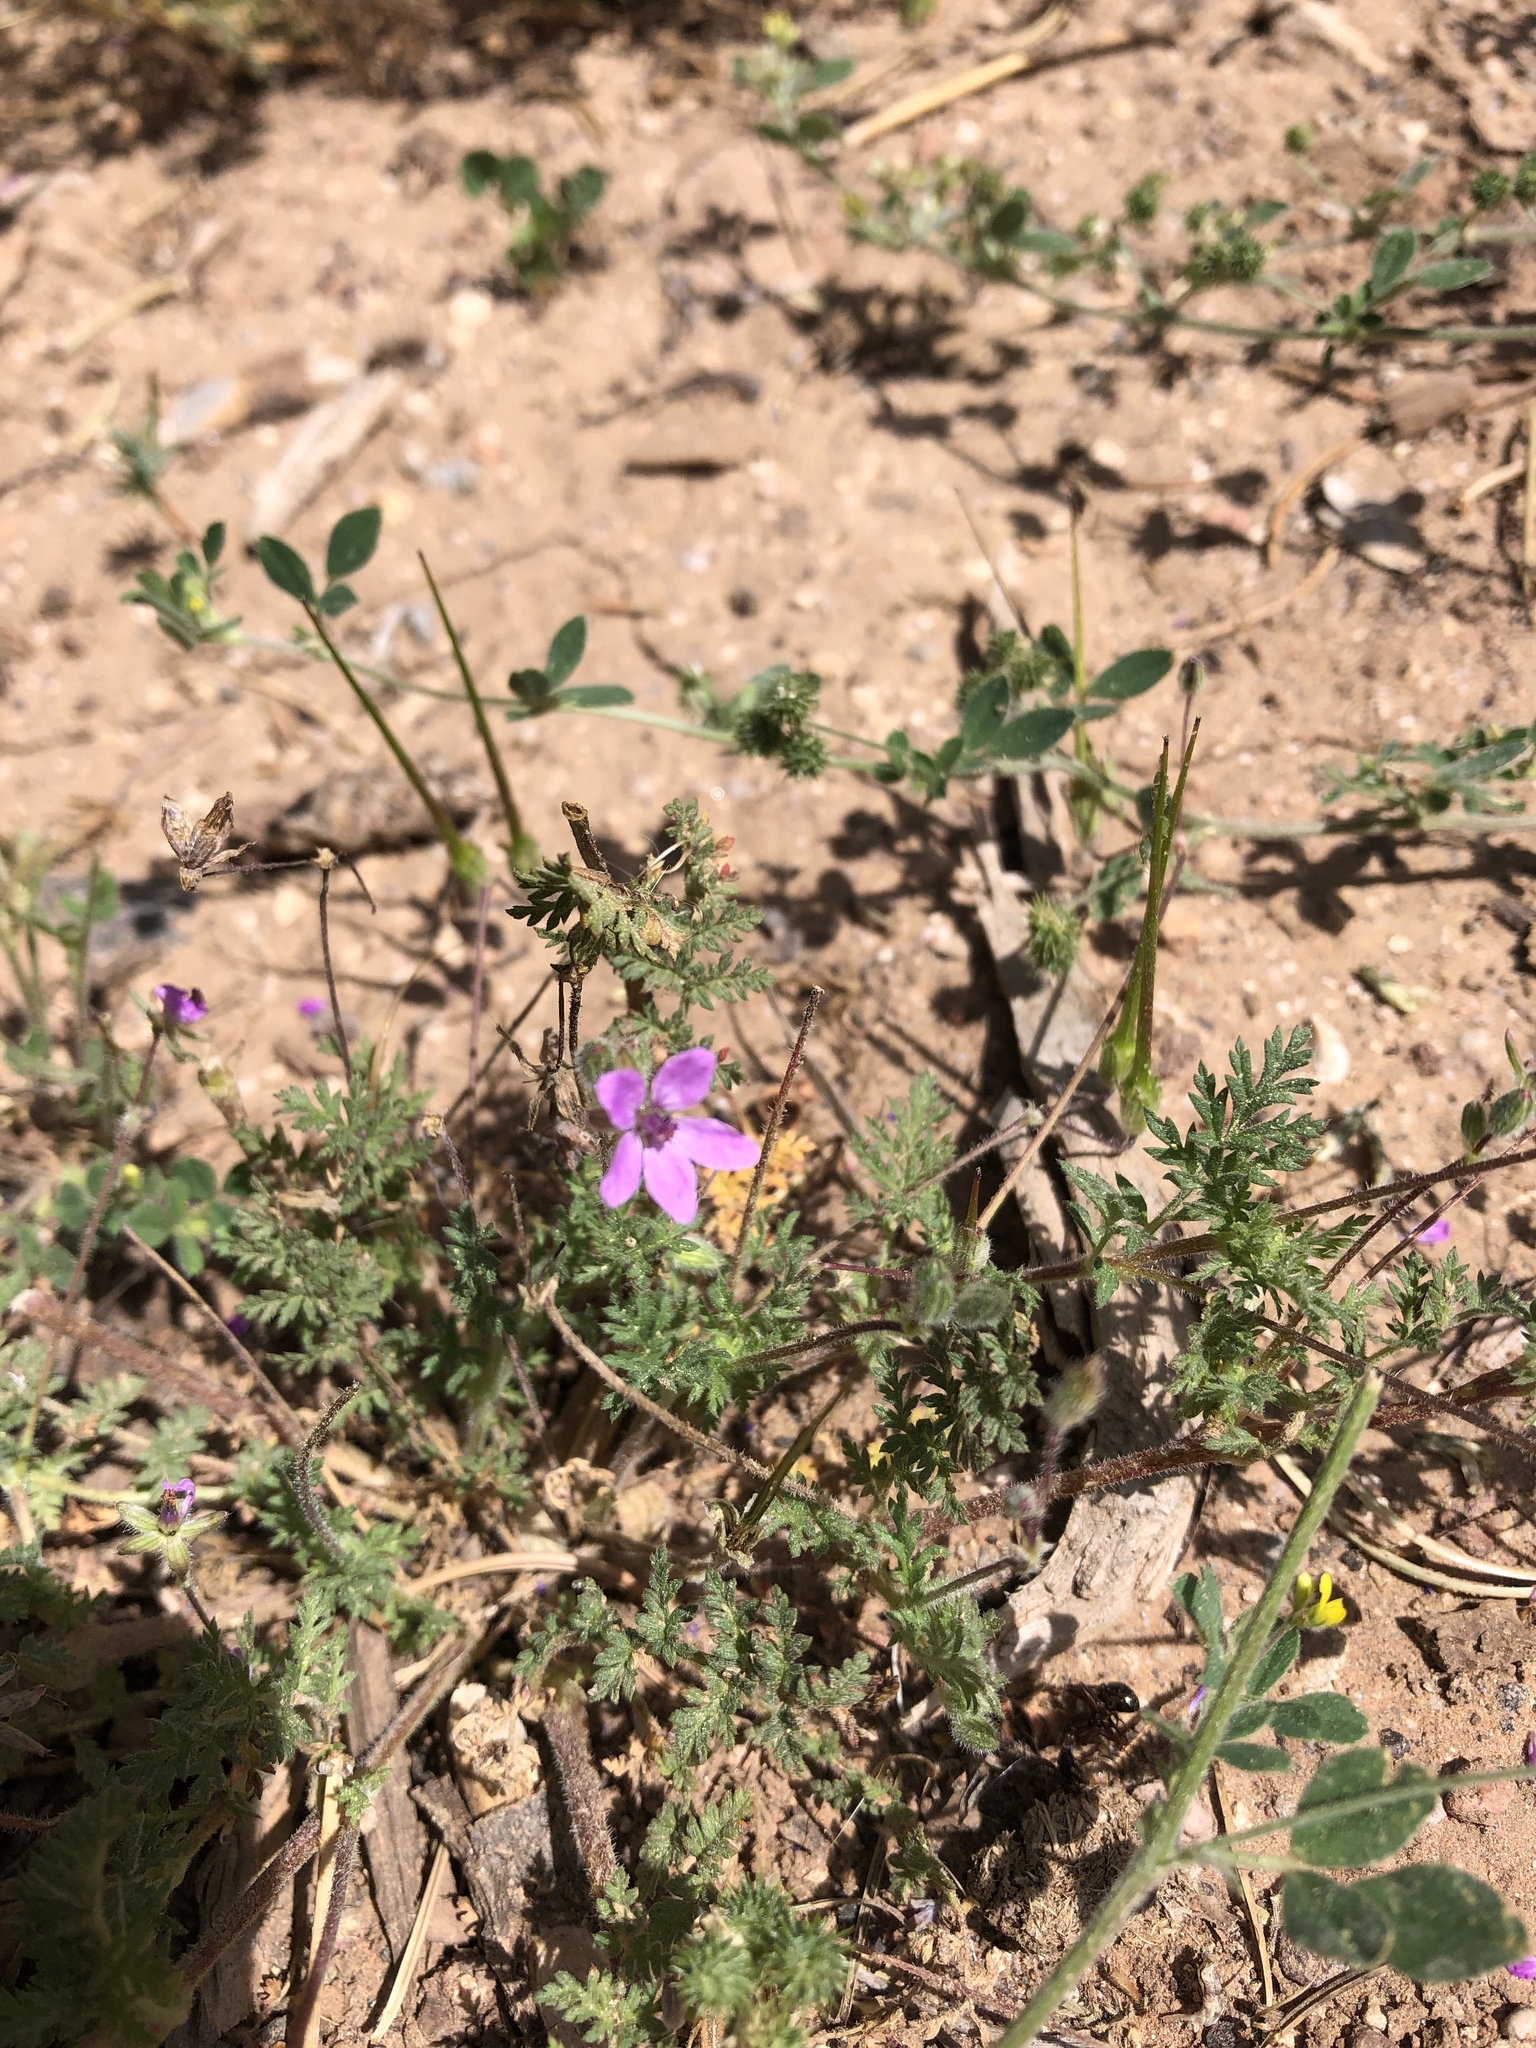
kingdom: Plantae
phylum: Tracheophyta
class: Magnoliopsida
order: Geraniales
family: Geraniaceae
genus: Erodium
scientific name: Erodium cicutarium
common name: Common stork's-bill
